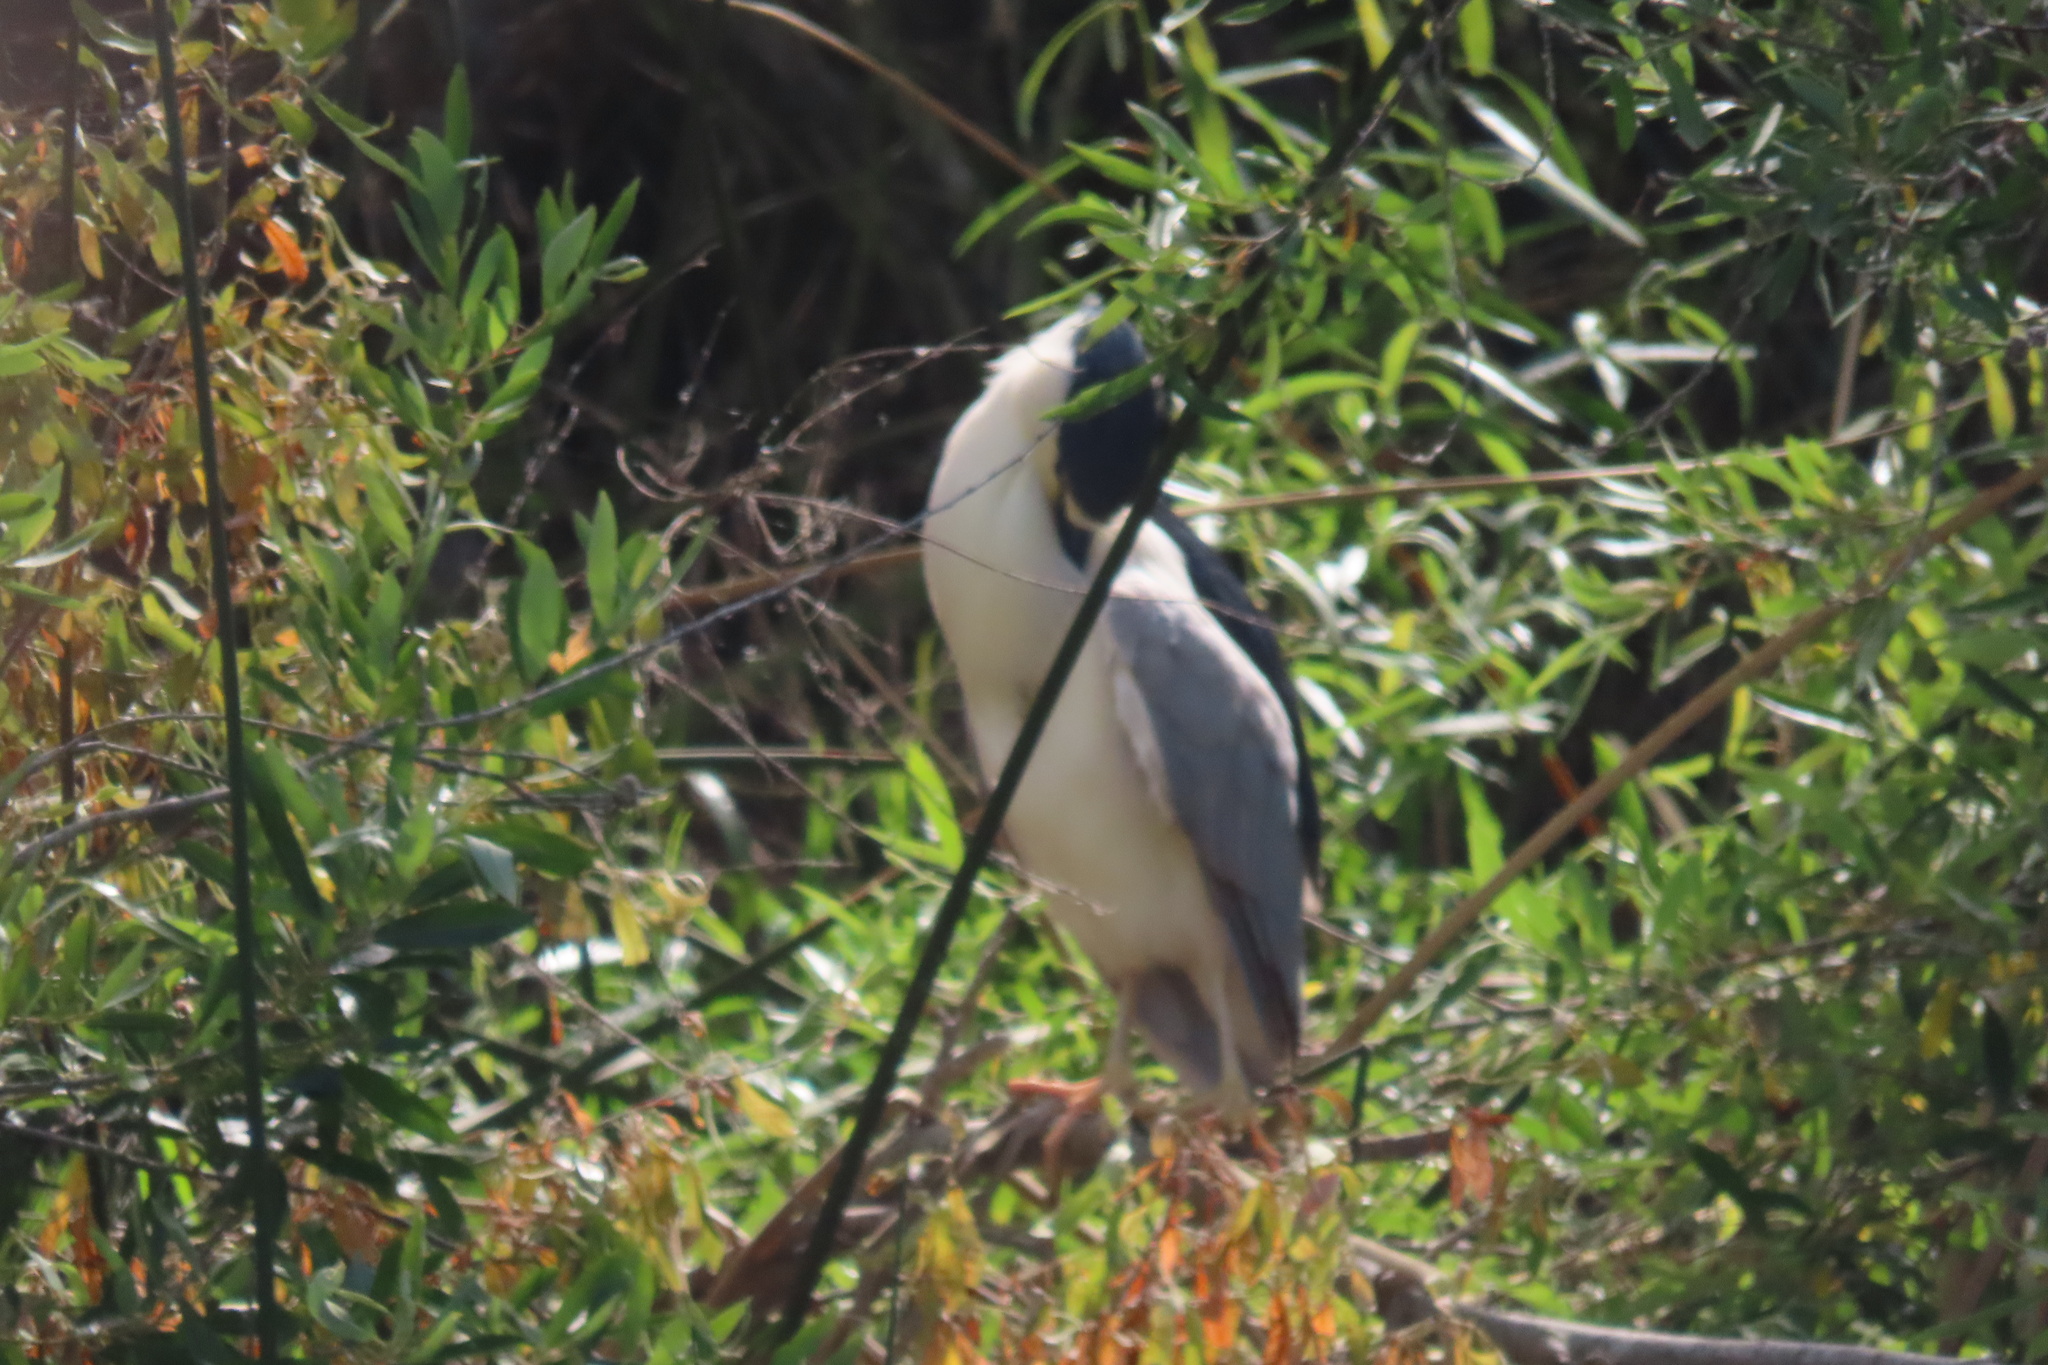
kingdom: Animalia
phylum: Chordata
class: Aves
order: Pelecaniformes
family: Ardeidae
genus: Nycticorax
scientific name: Nycticorax nycticorax
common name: Black-crowned night heron
